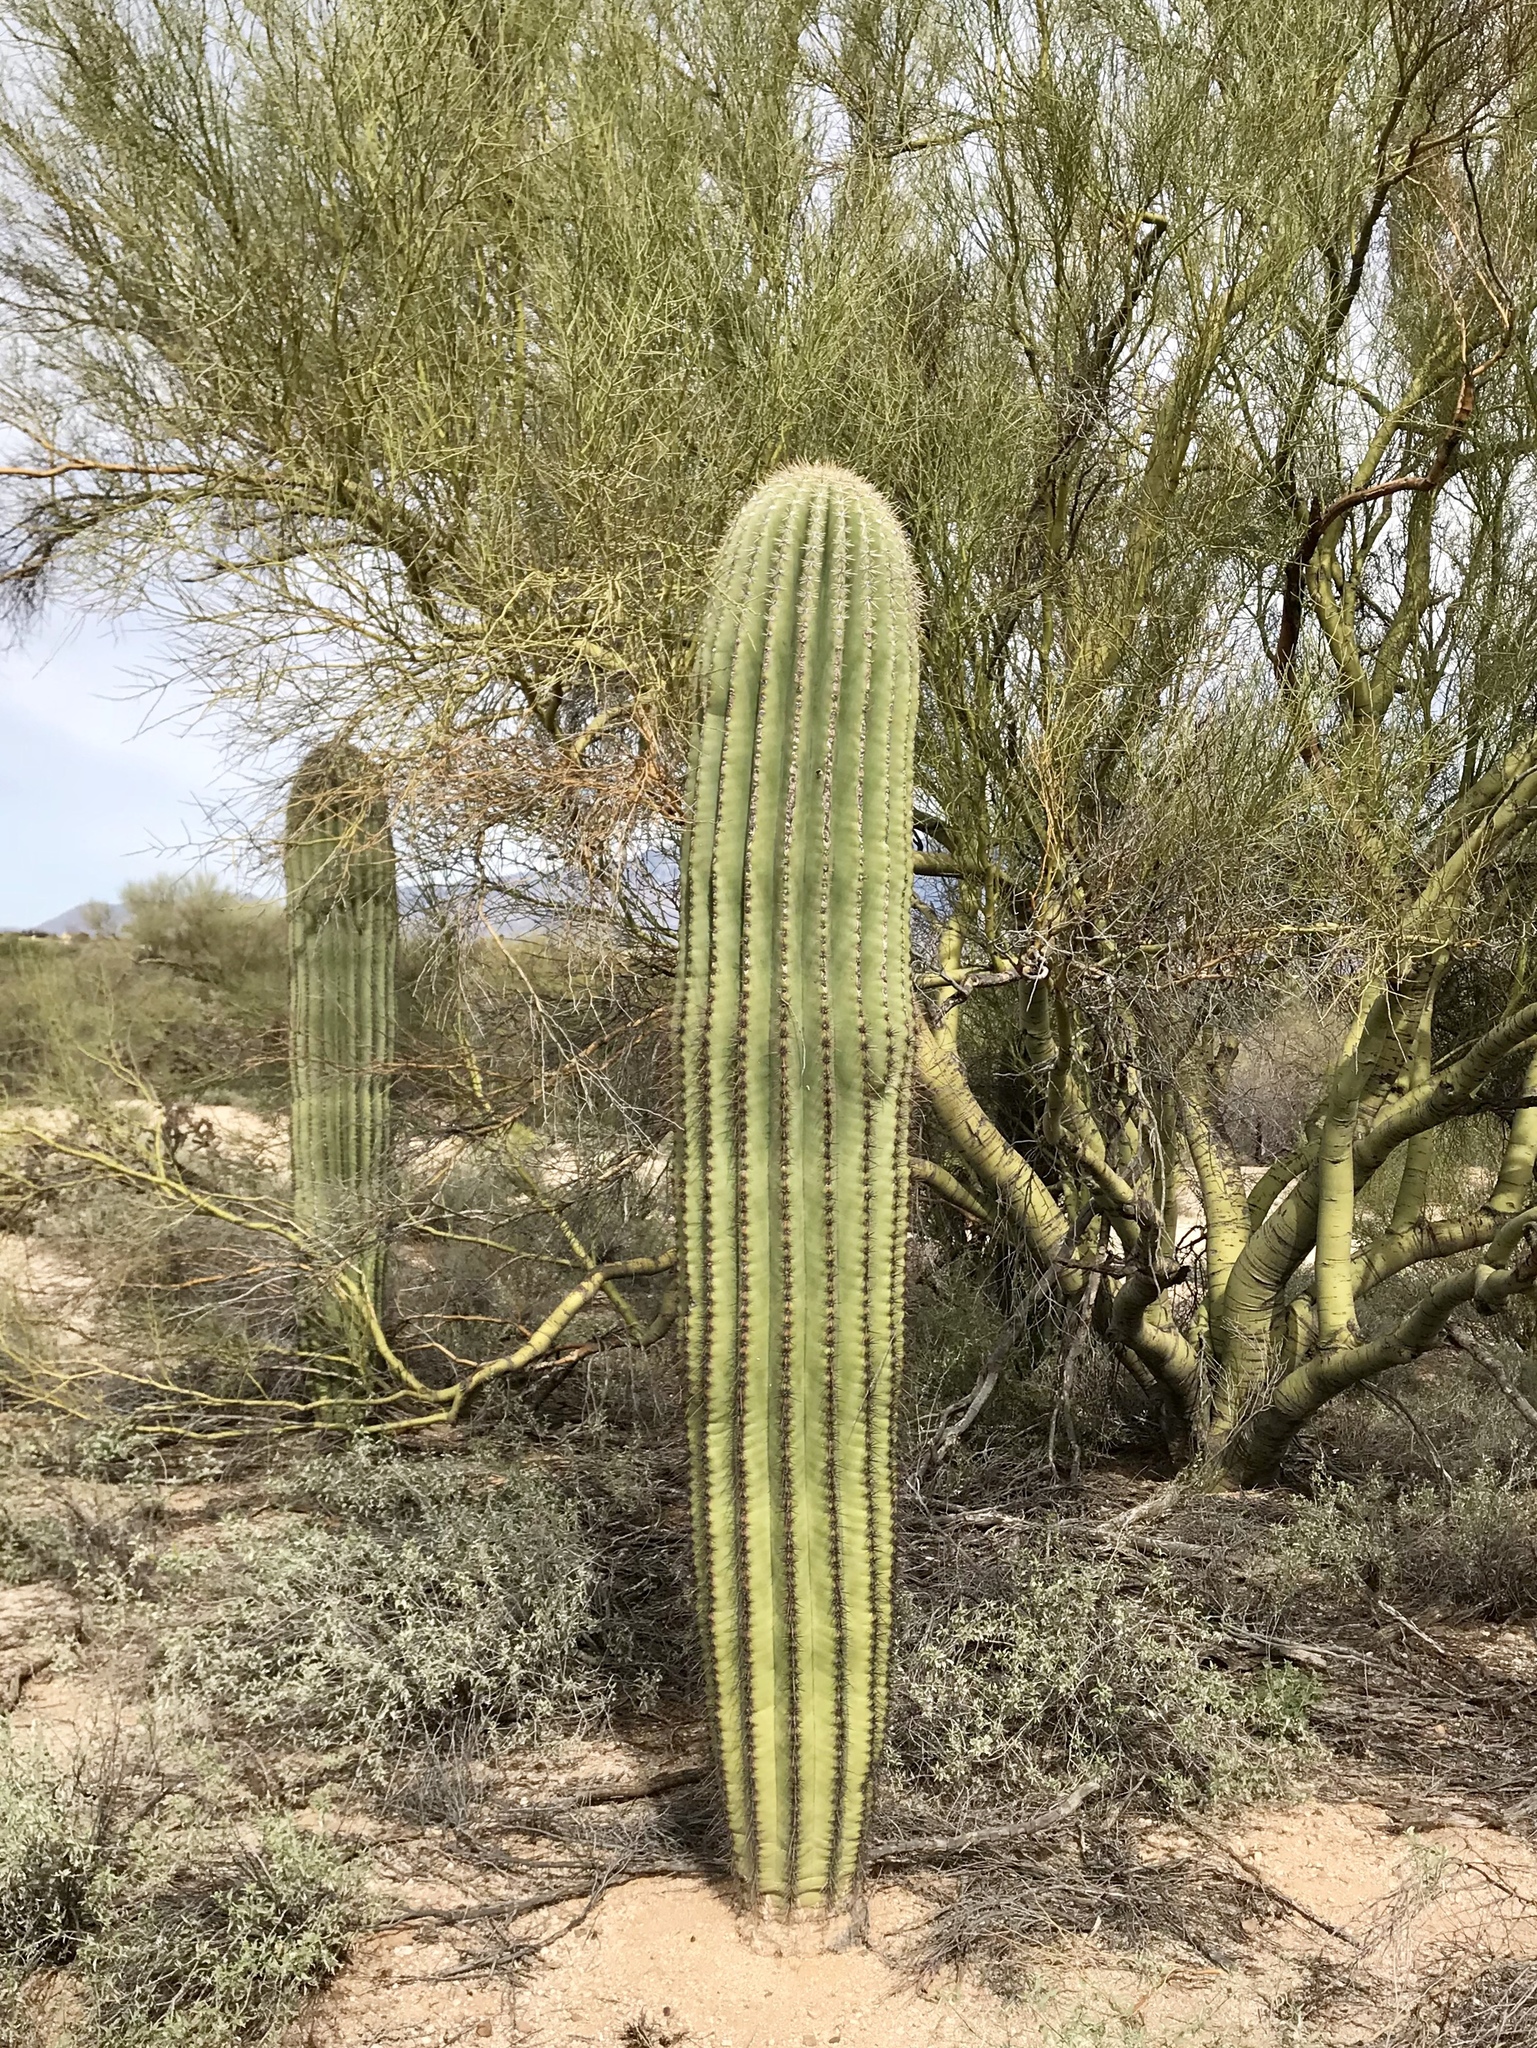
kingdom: Plantae
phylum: Tracheophyta
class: Magnoliopsida
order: Caryophyllales
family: Cactaceae
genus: Carnegiea
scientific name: Carnegiea gigantea
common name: Saguaro
